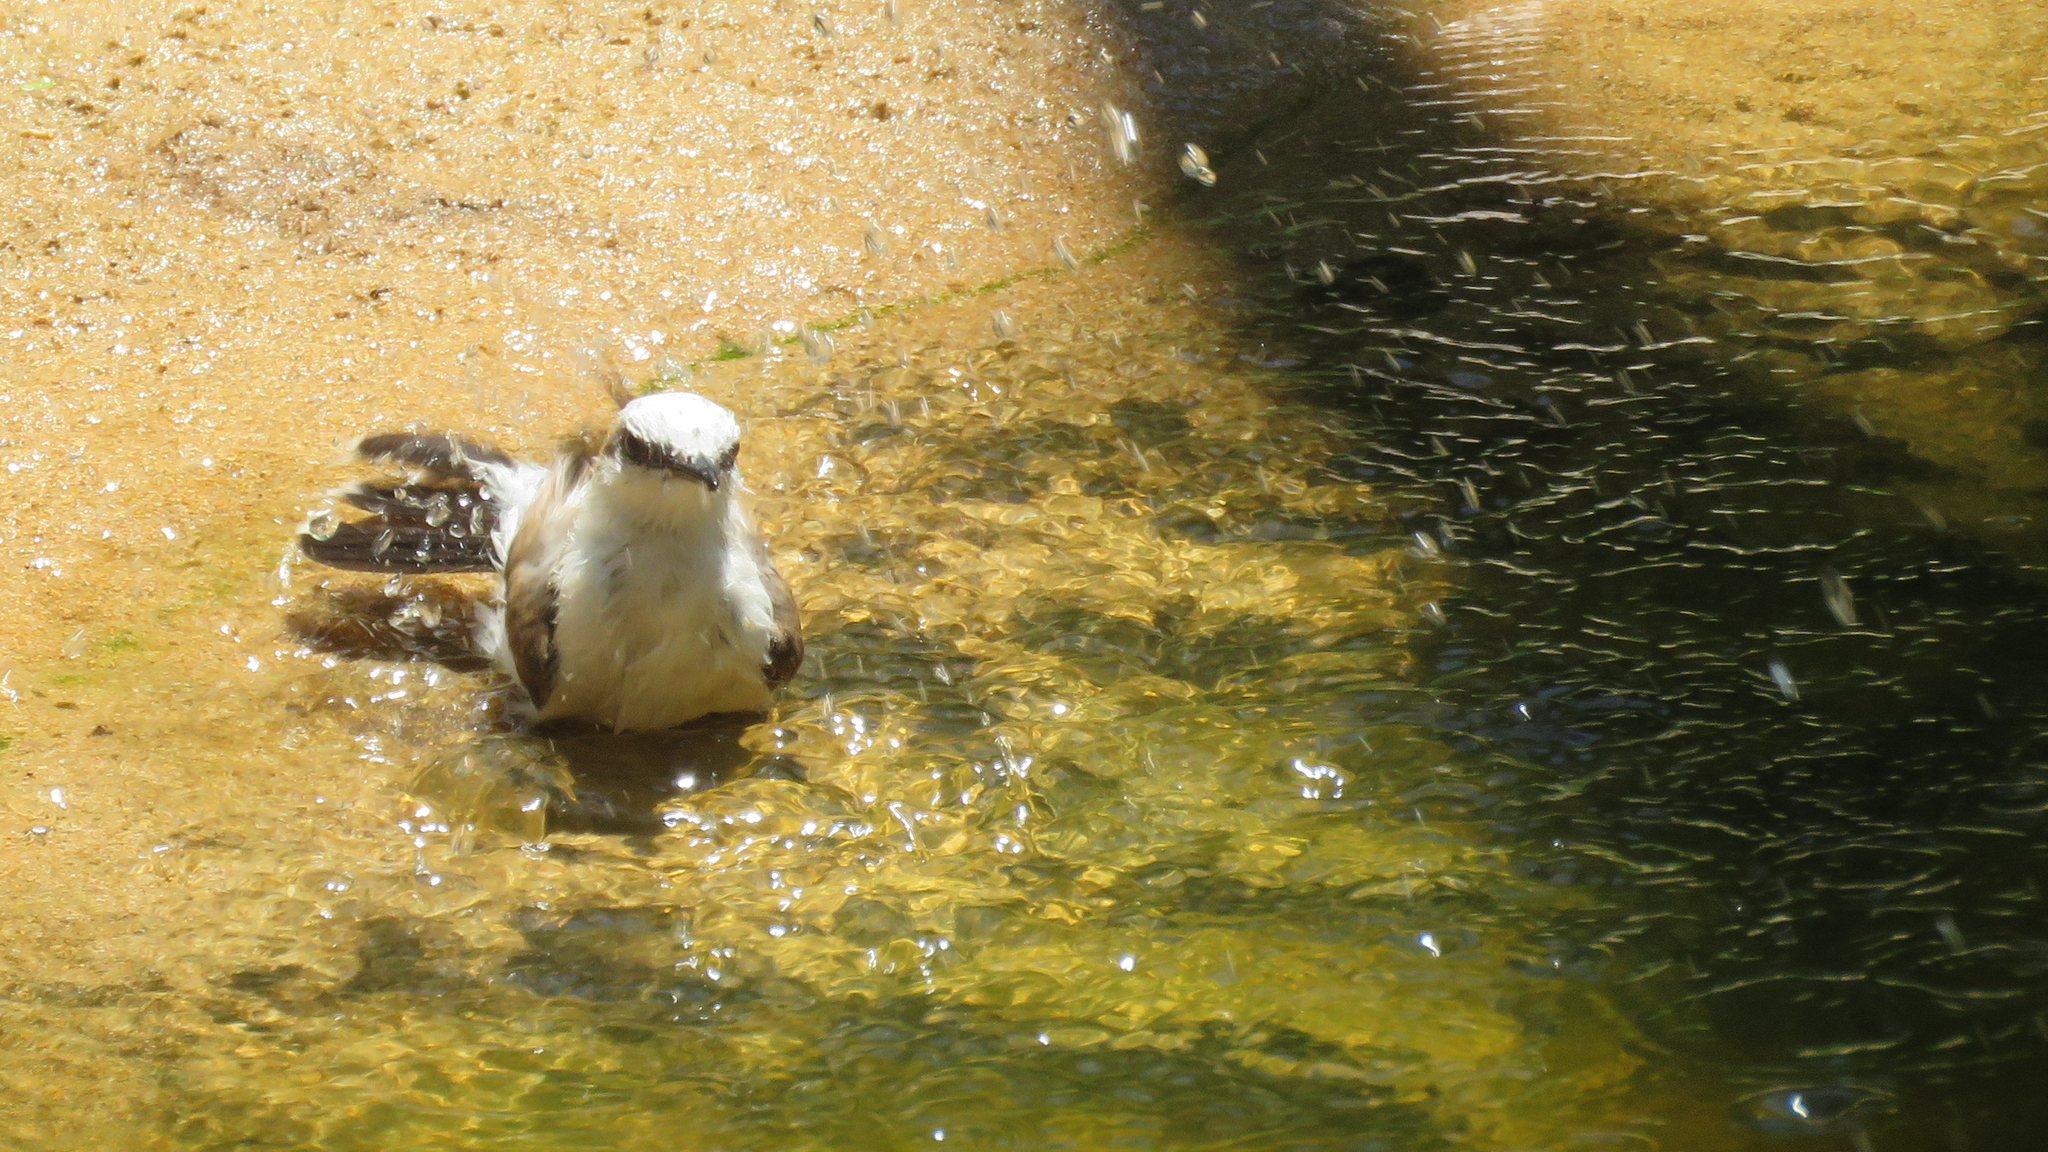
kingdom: Animalia
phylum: Chordata
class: Aves
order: Passeriformes
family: Tyrannidae
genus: Fluvicola
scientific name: Fluvicola nengeta
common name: Masked water tyrant
